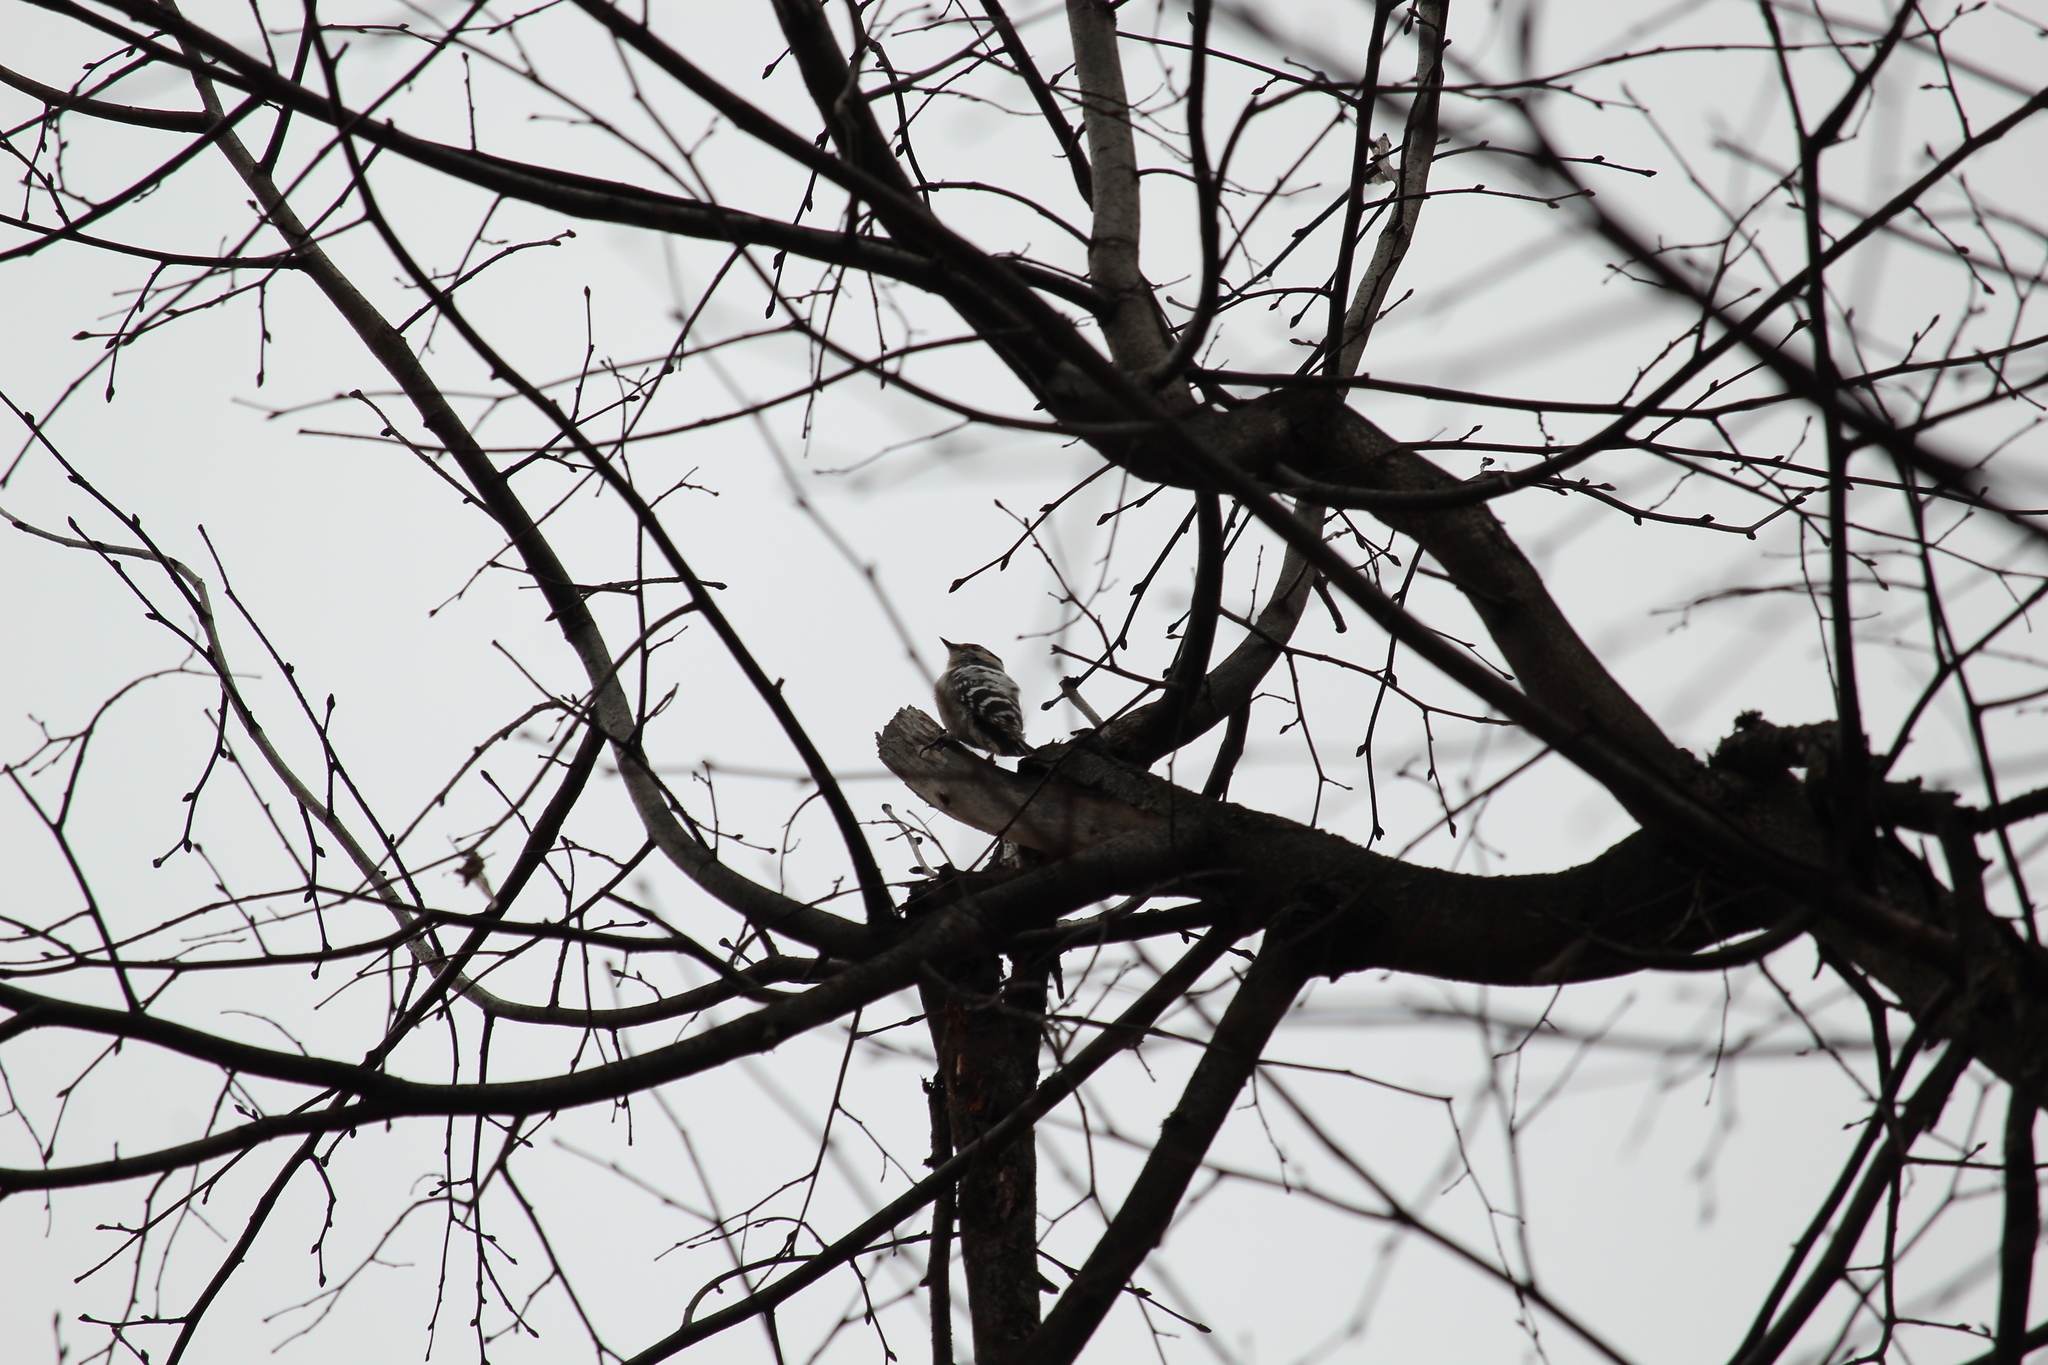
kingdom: Animalia
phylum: Chordata
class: Aves
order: Piciformes
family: Picidae
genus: Dryobates
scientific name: Dryobates minor
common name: Lesser spotted woodpecker
